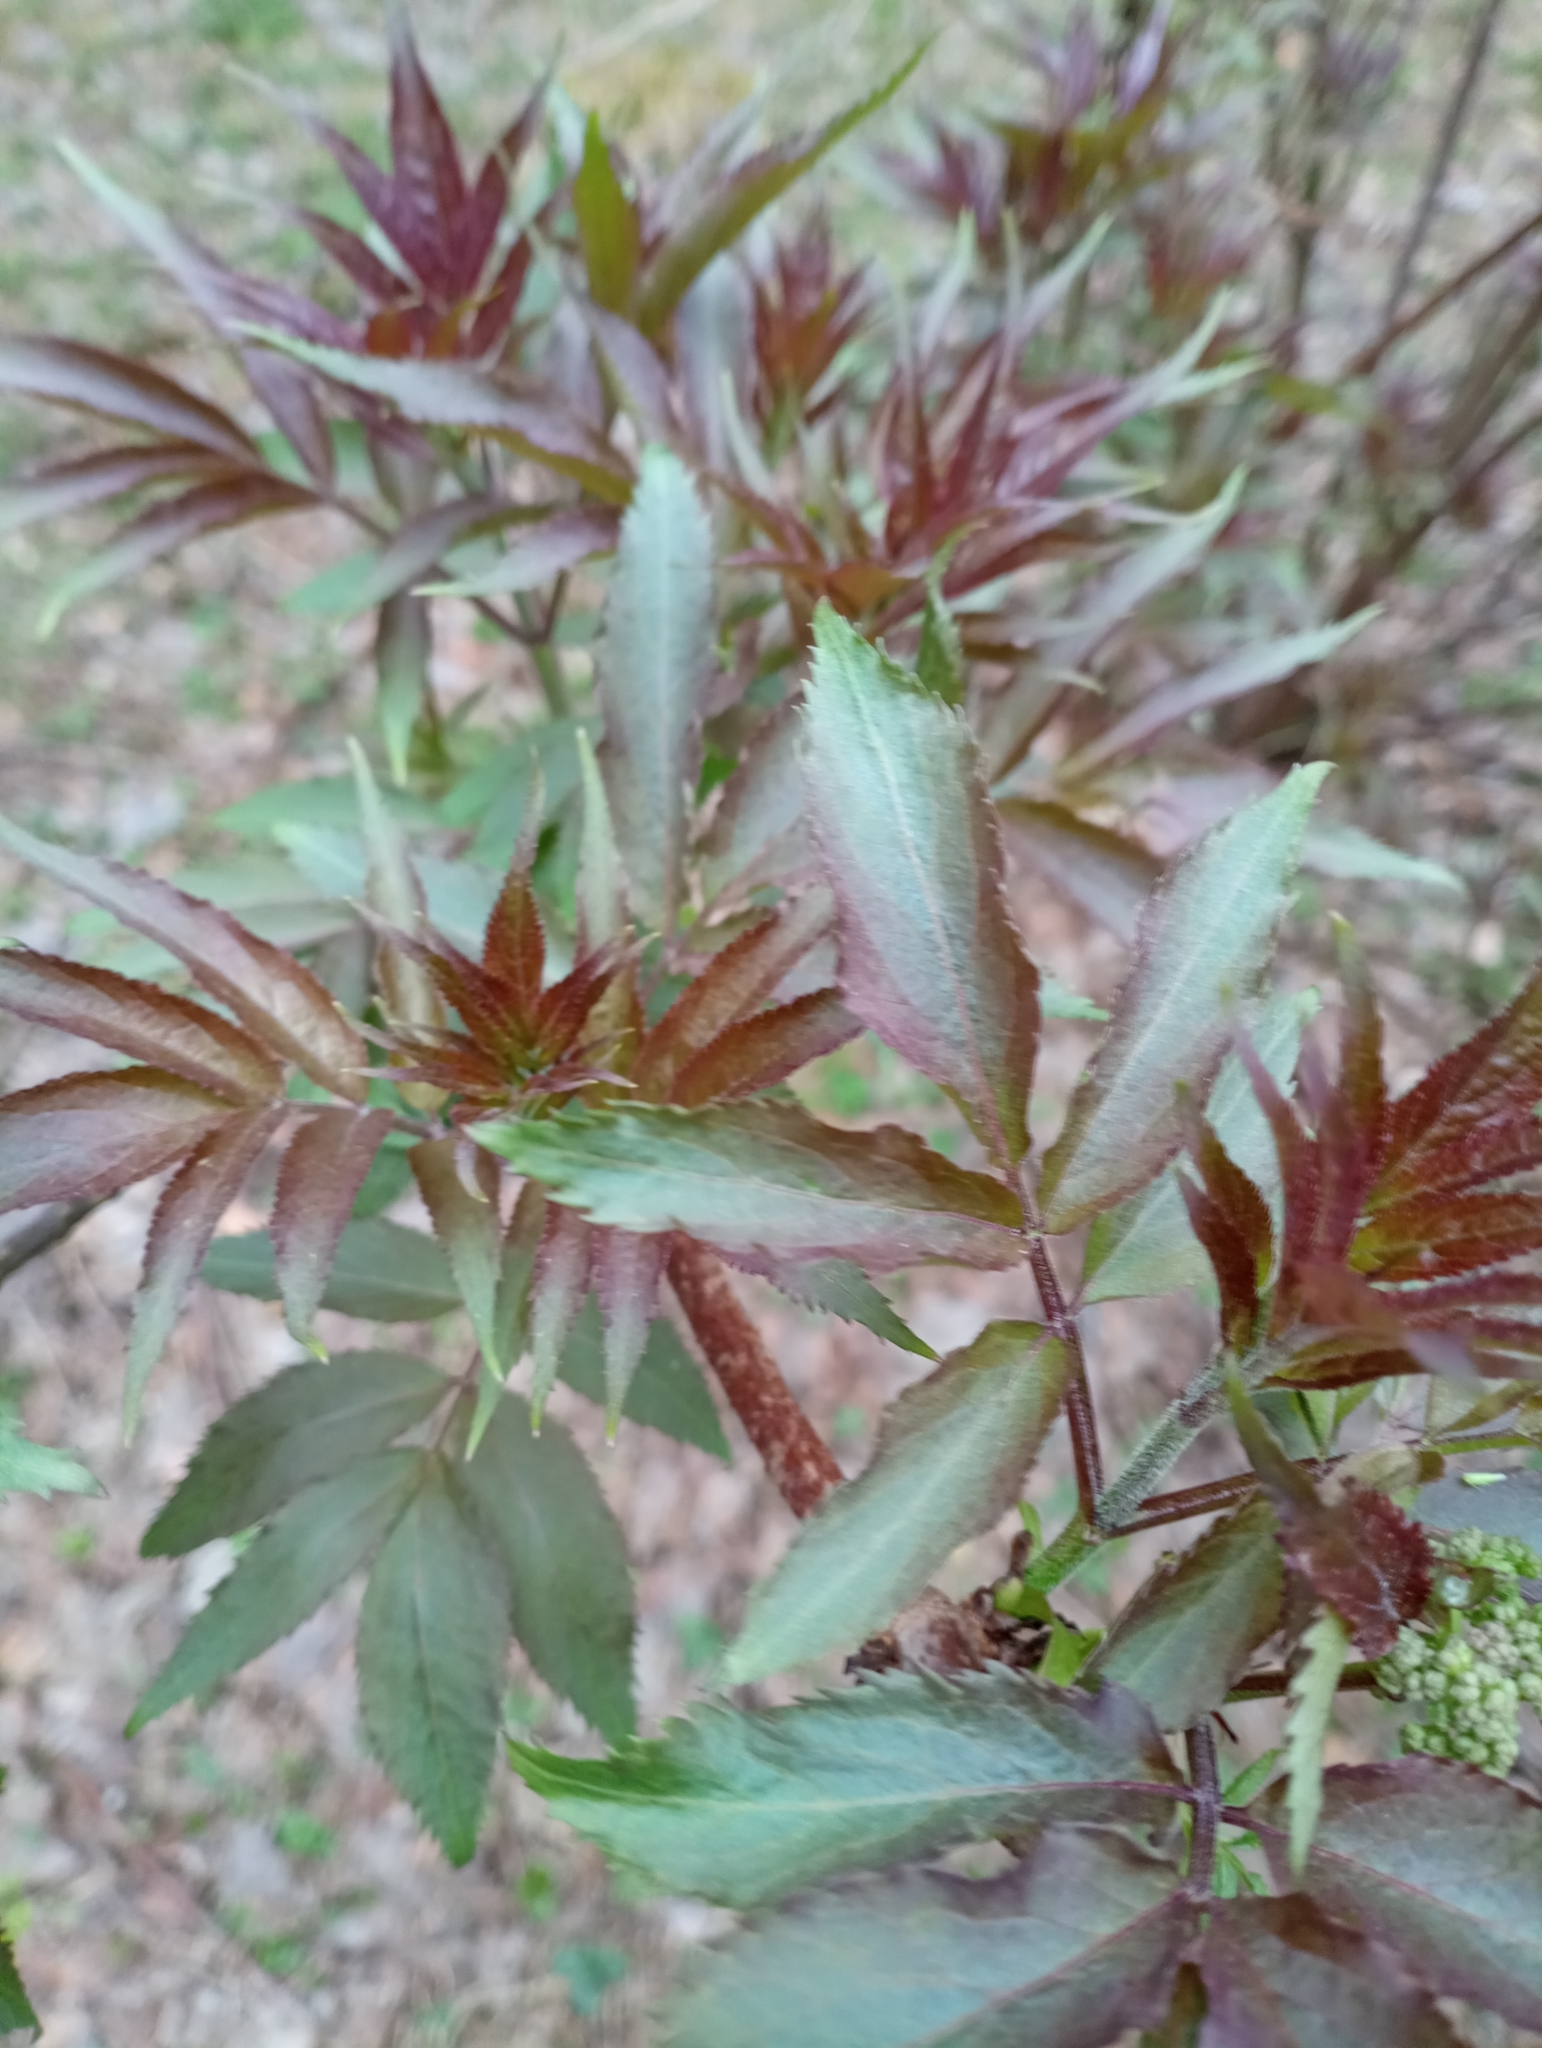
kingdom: Plantae
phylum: Tracheophyta
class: Magnoliopsida
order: Dipsacales
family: Viburnaceae
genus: Sambucus
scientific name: Sambucus racemosa
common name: Red-berried elder
